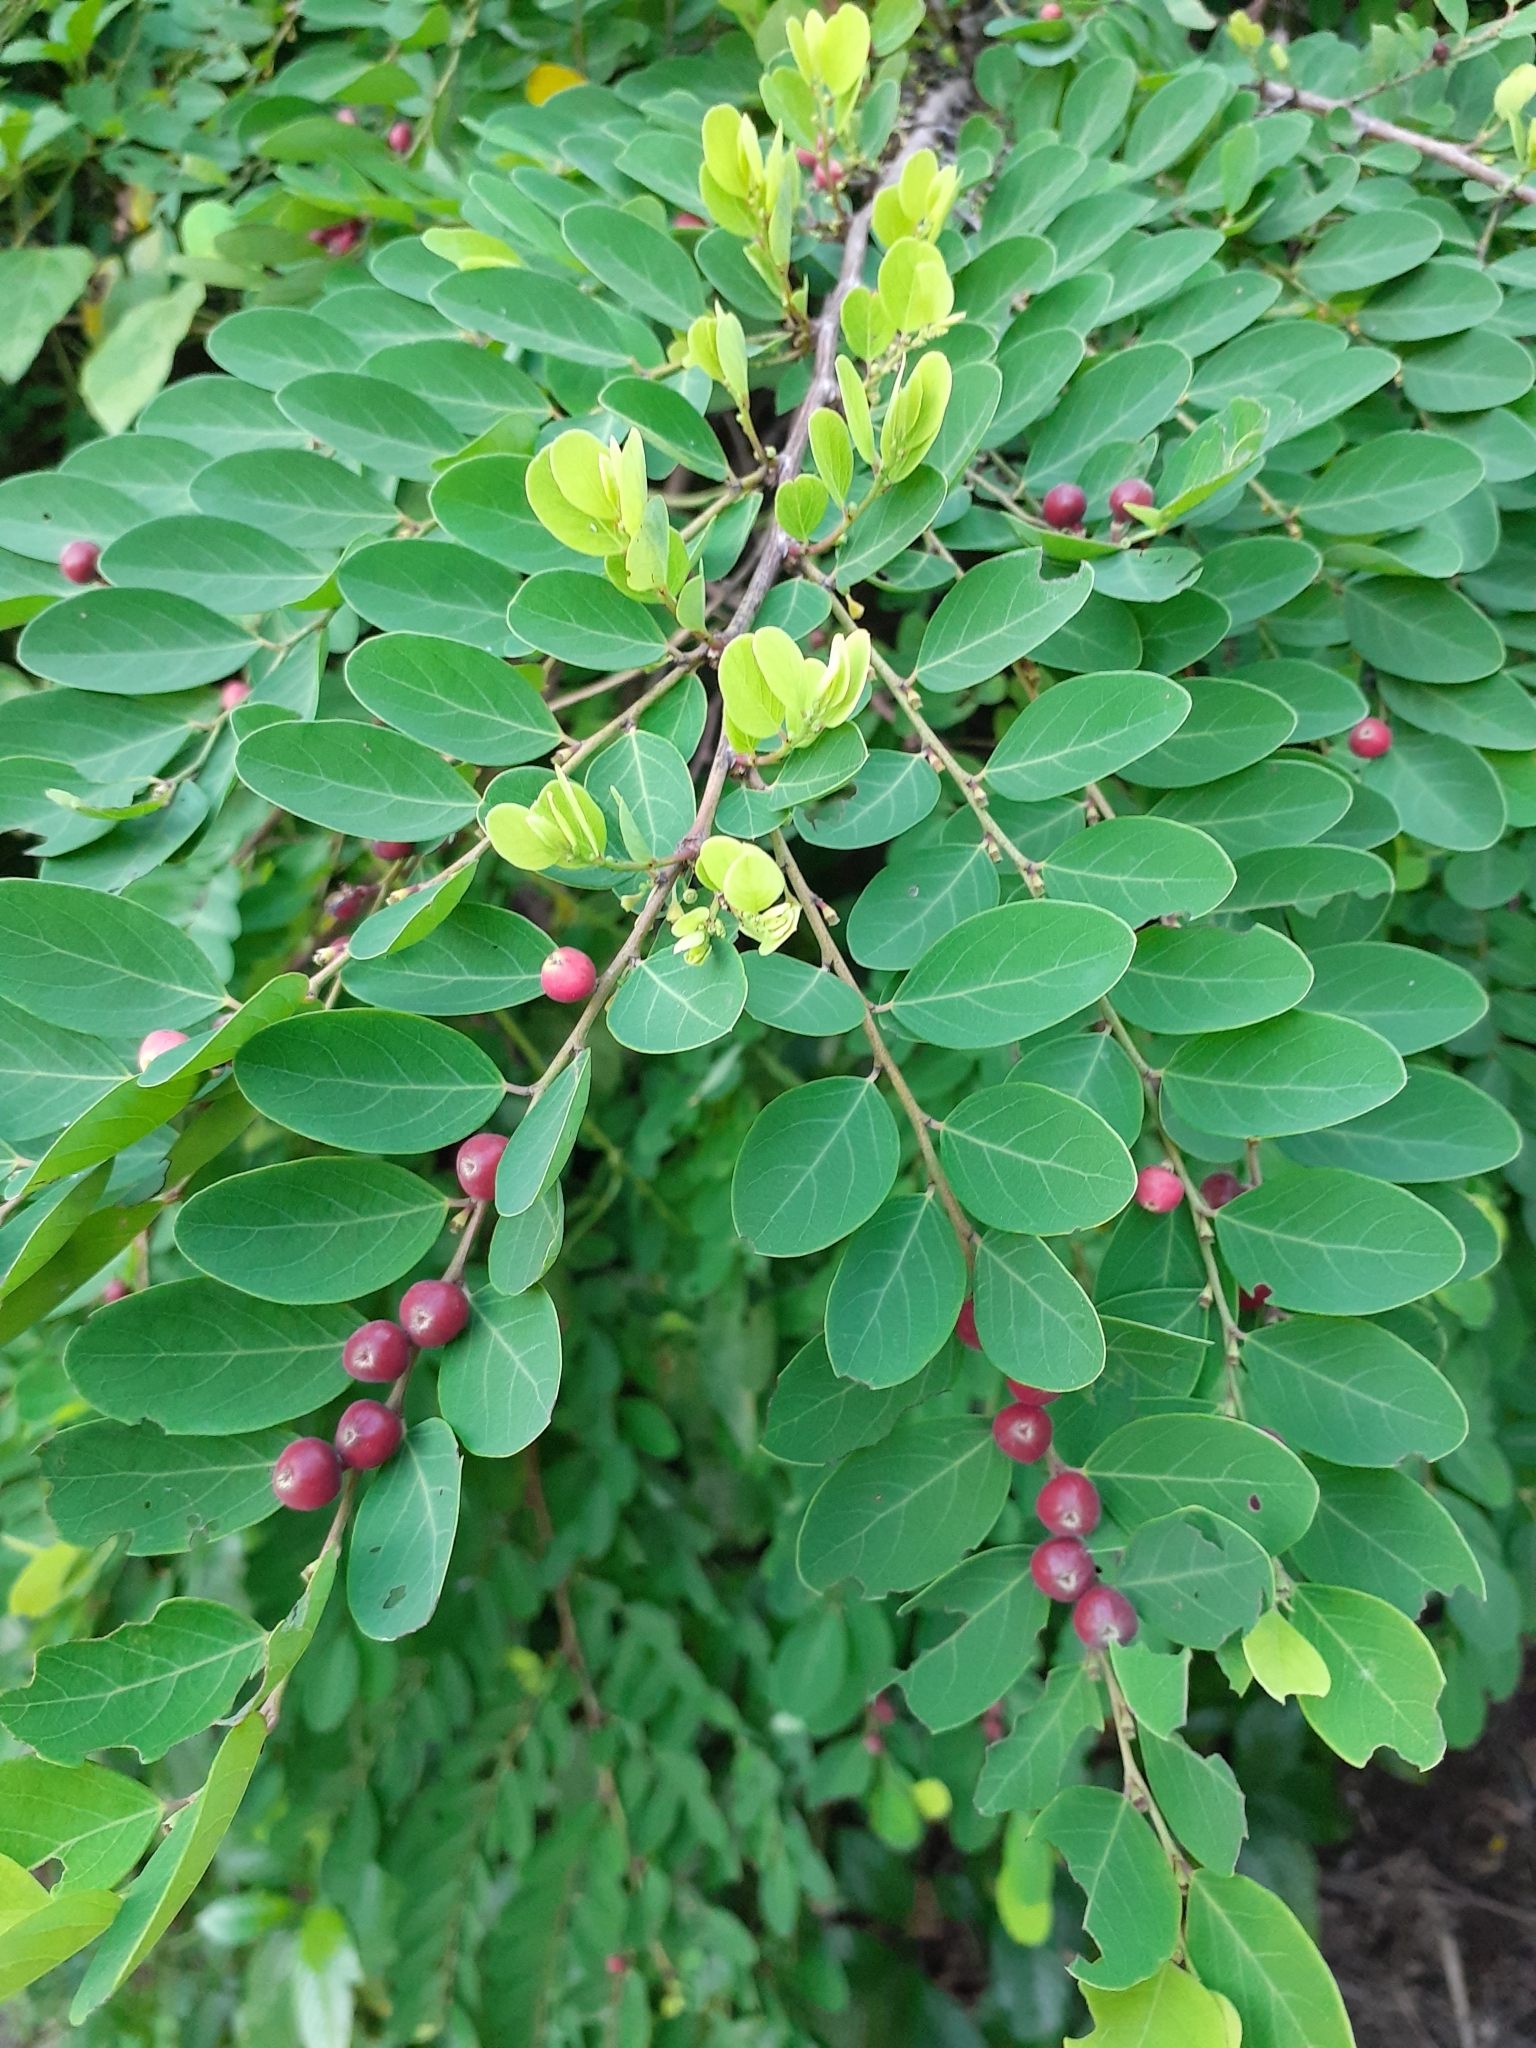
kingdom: Plantae
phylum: Tracheophyta
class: Magnoliopsida
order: Malpighiales
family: Phyllanthaceae
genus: Breynia
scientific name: Breynia vitis-idaea
